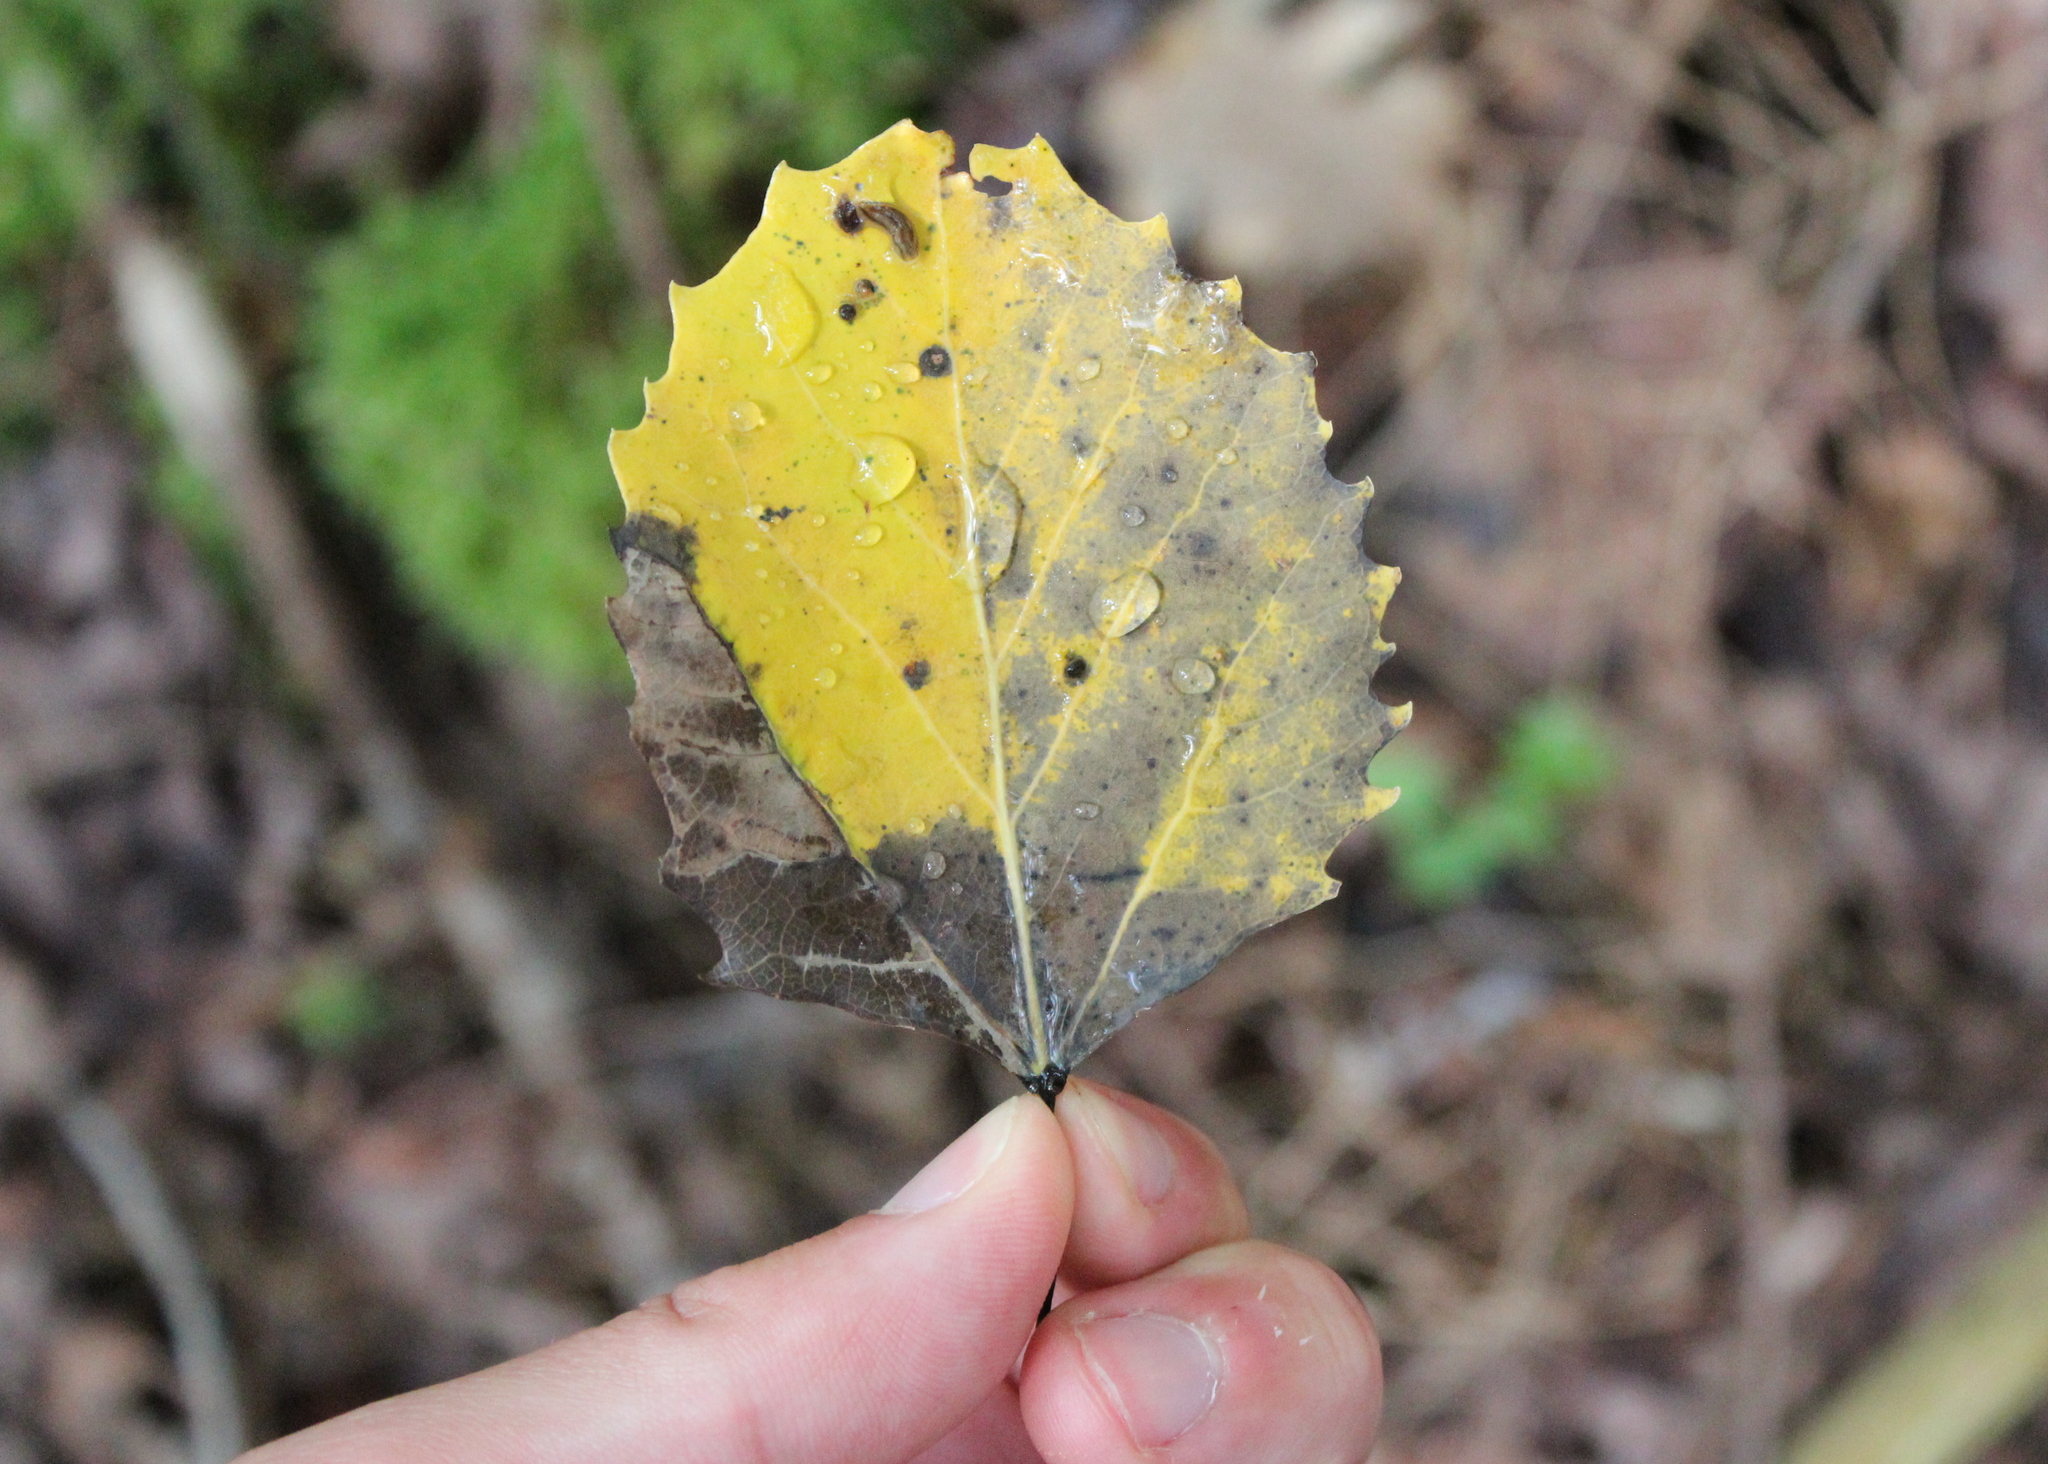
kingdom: Plantae
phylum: Tracheophyta
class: Magnoliopsida
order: Malpighiales
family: Salicaceae
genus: Populus
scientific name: Populus grandidentata
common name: Bigtooth aspen
